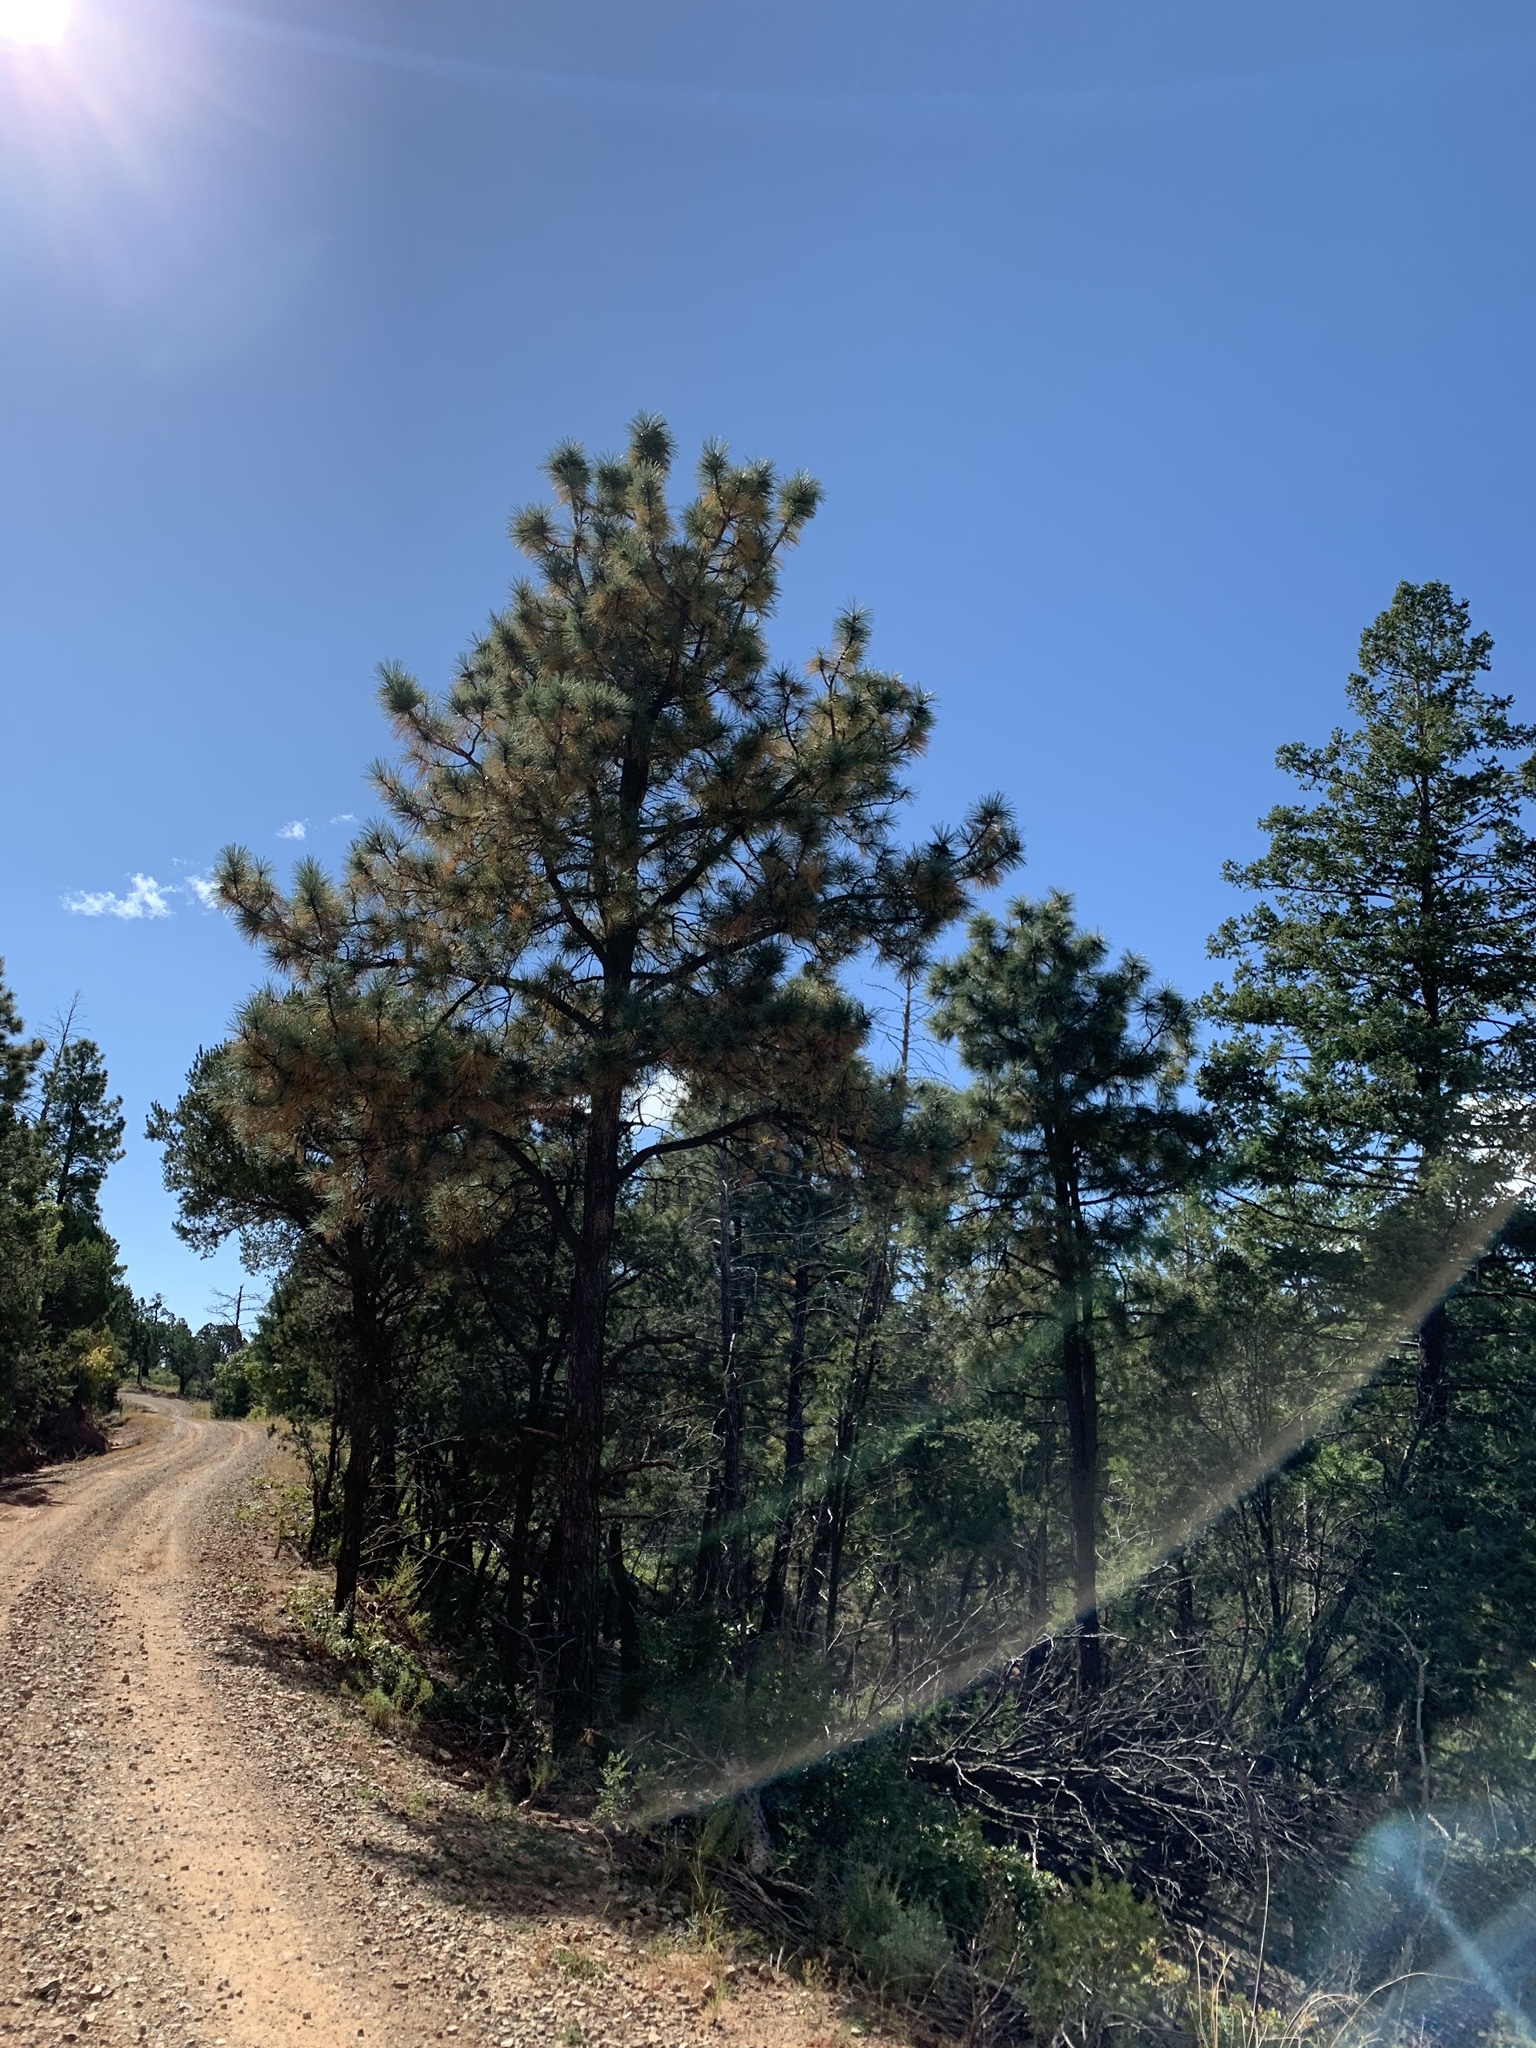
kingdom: Plantae
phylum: Tracheophyta
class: Pinopsida
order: Pinales
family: Pinaceae
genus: Pinus
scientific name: Pinus ponderosa
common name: Western yellow-pine
